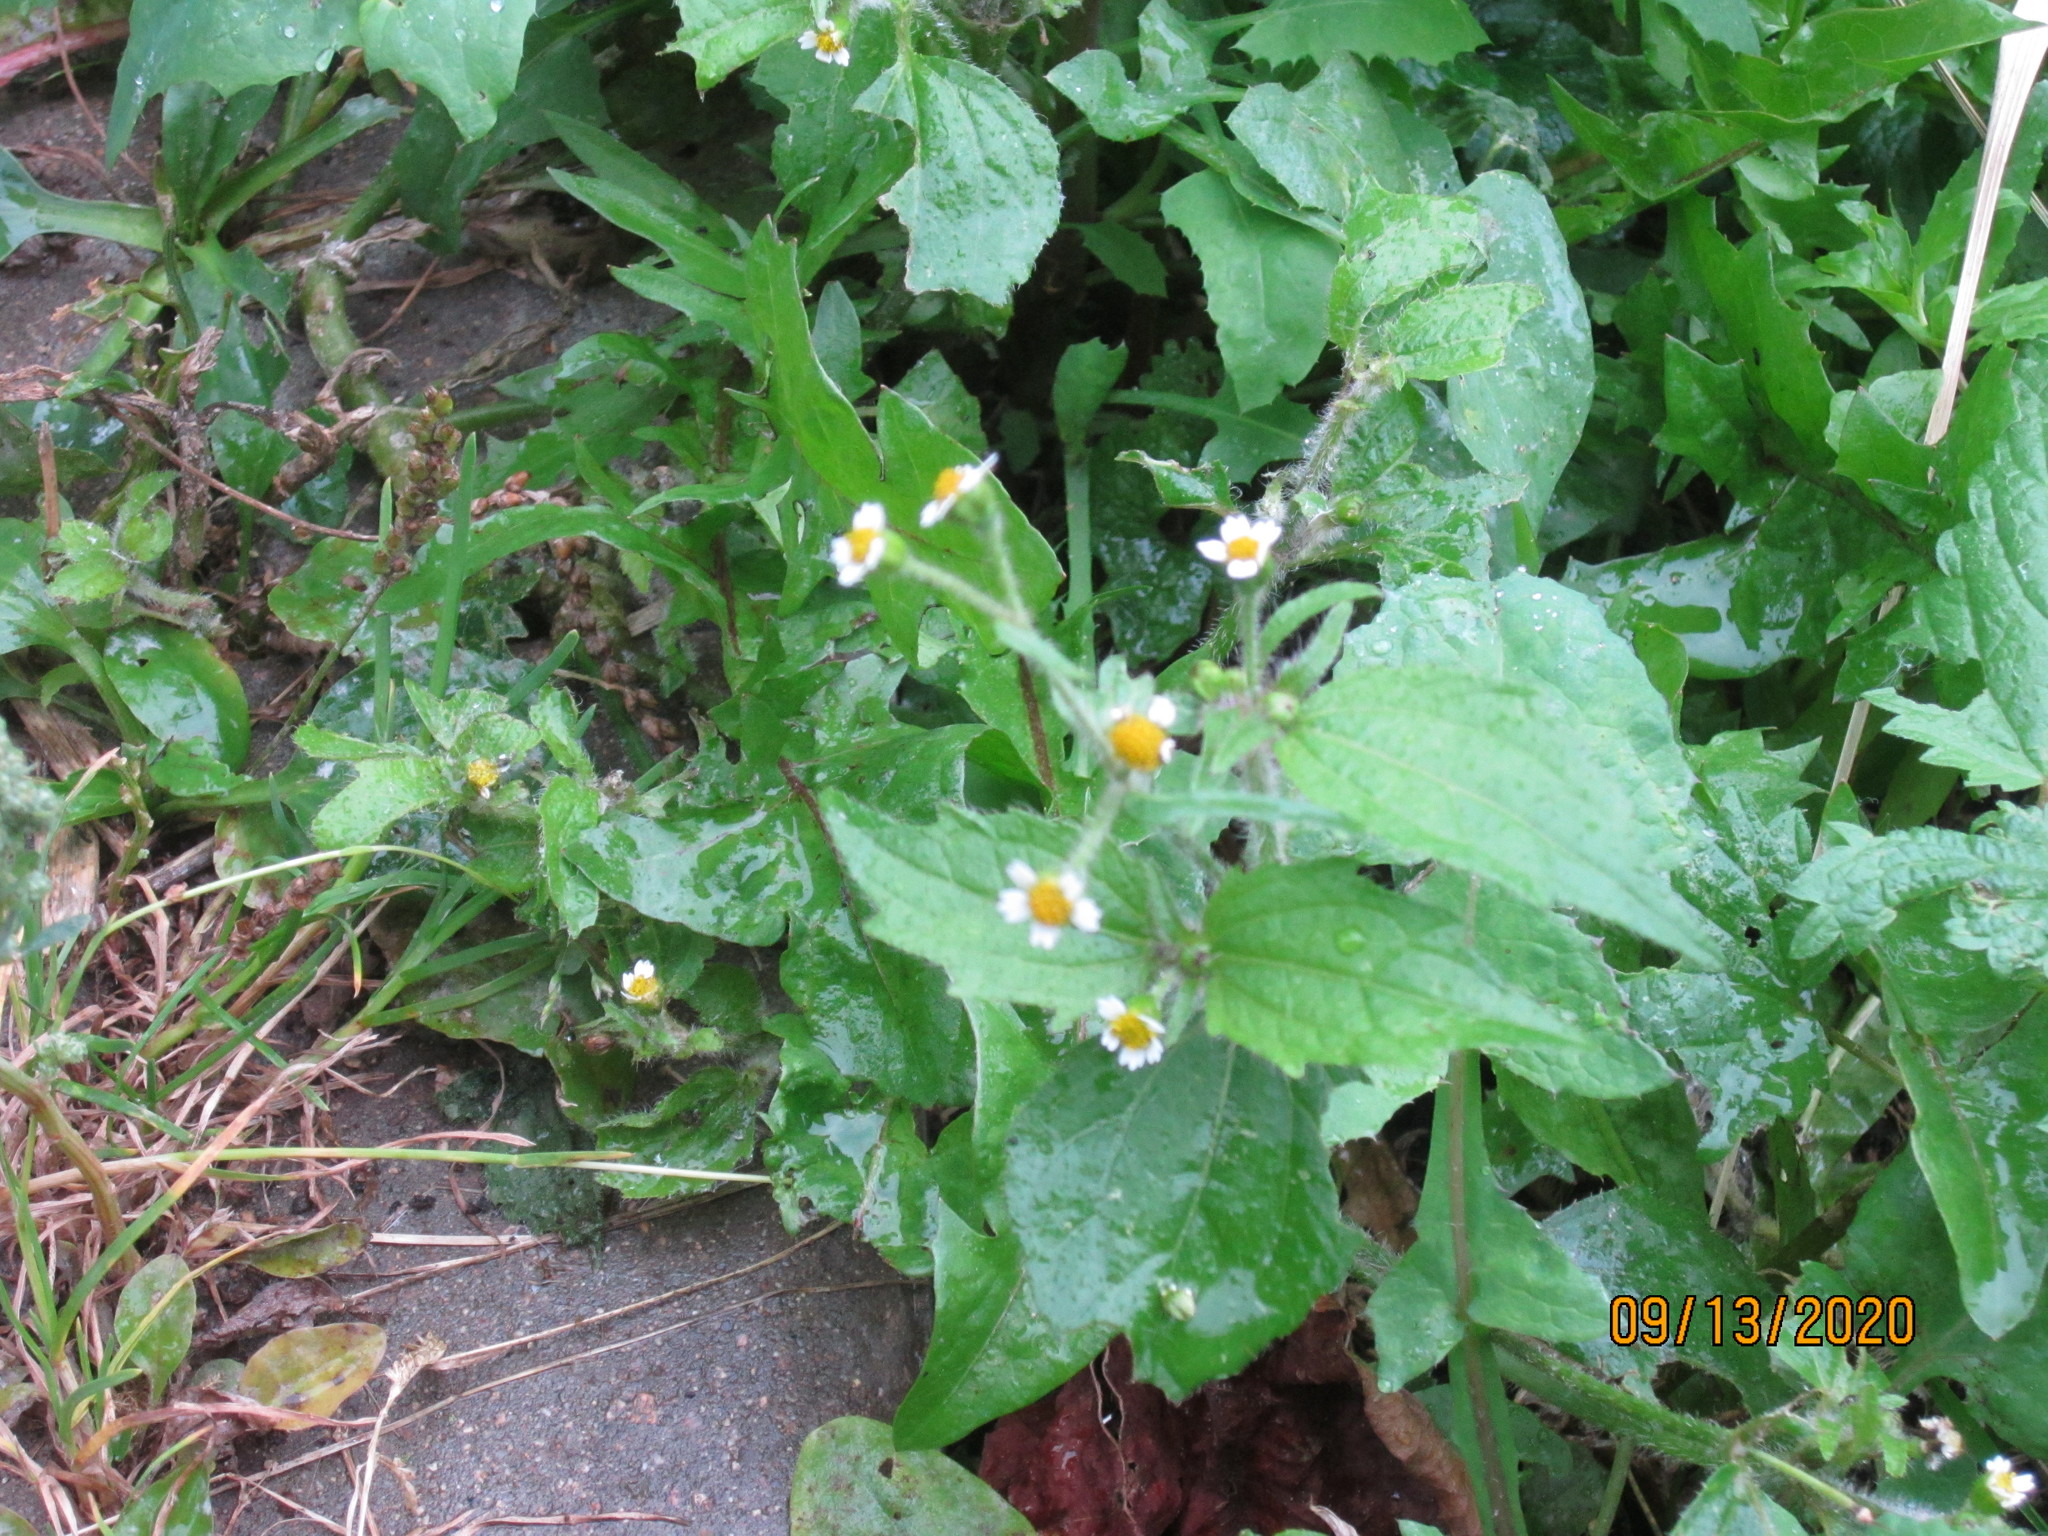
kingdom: Plantae
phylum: Tracheophyta
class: Magnoliopsida
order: Asterales
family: Asteraceae
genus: Galinsoga
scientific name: Galinsoga quadriradiata
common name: Shaggy soldier
